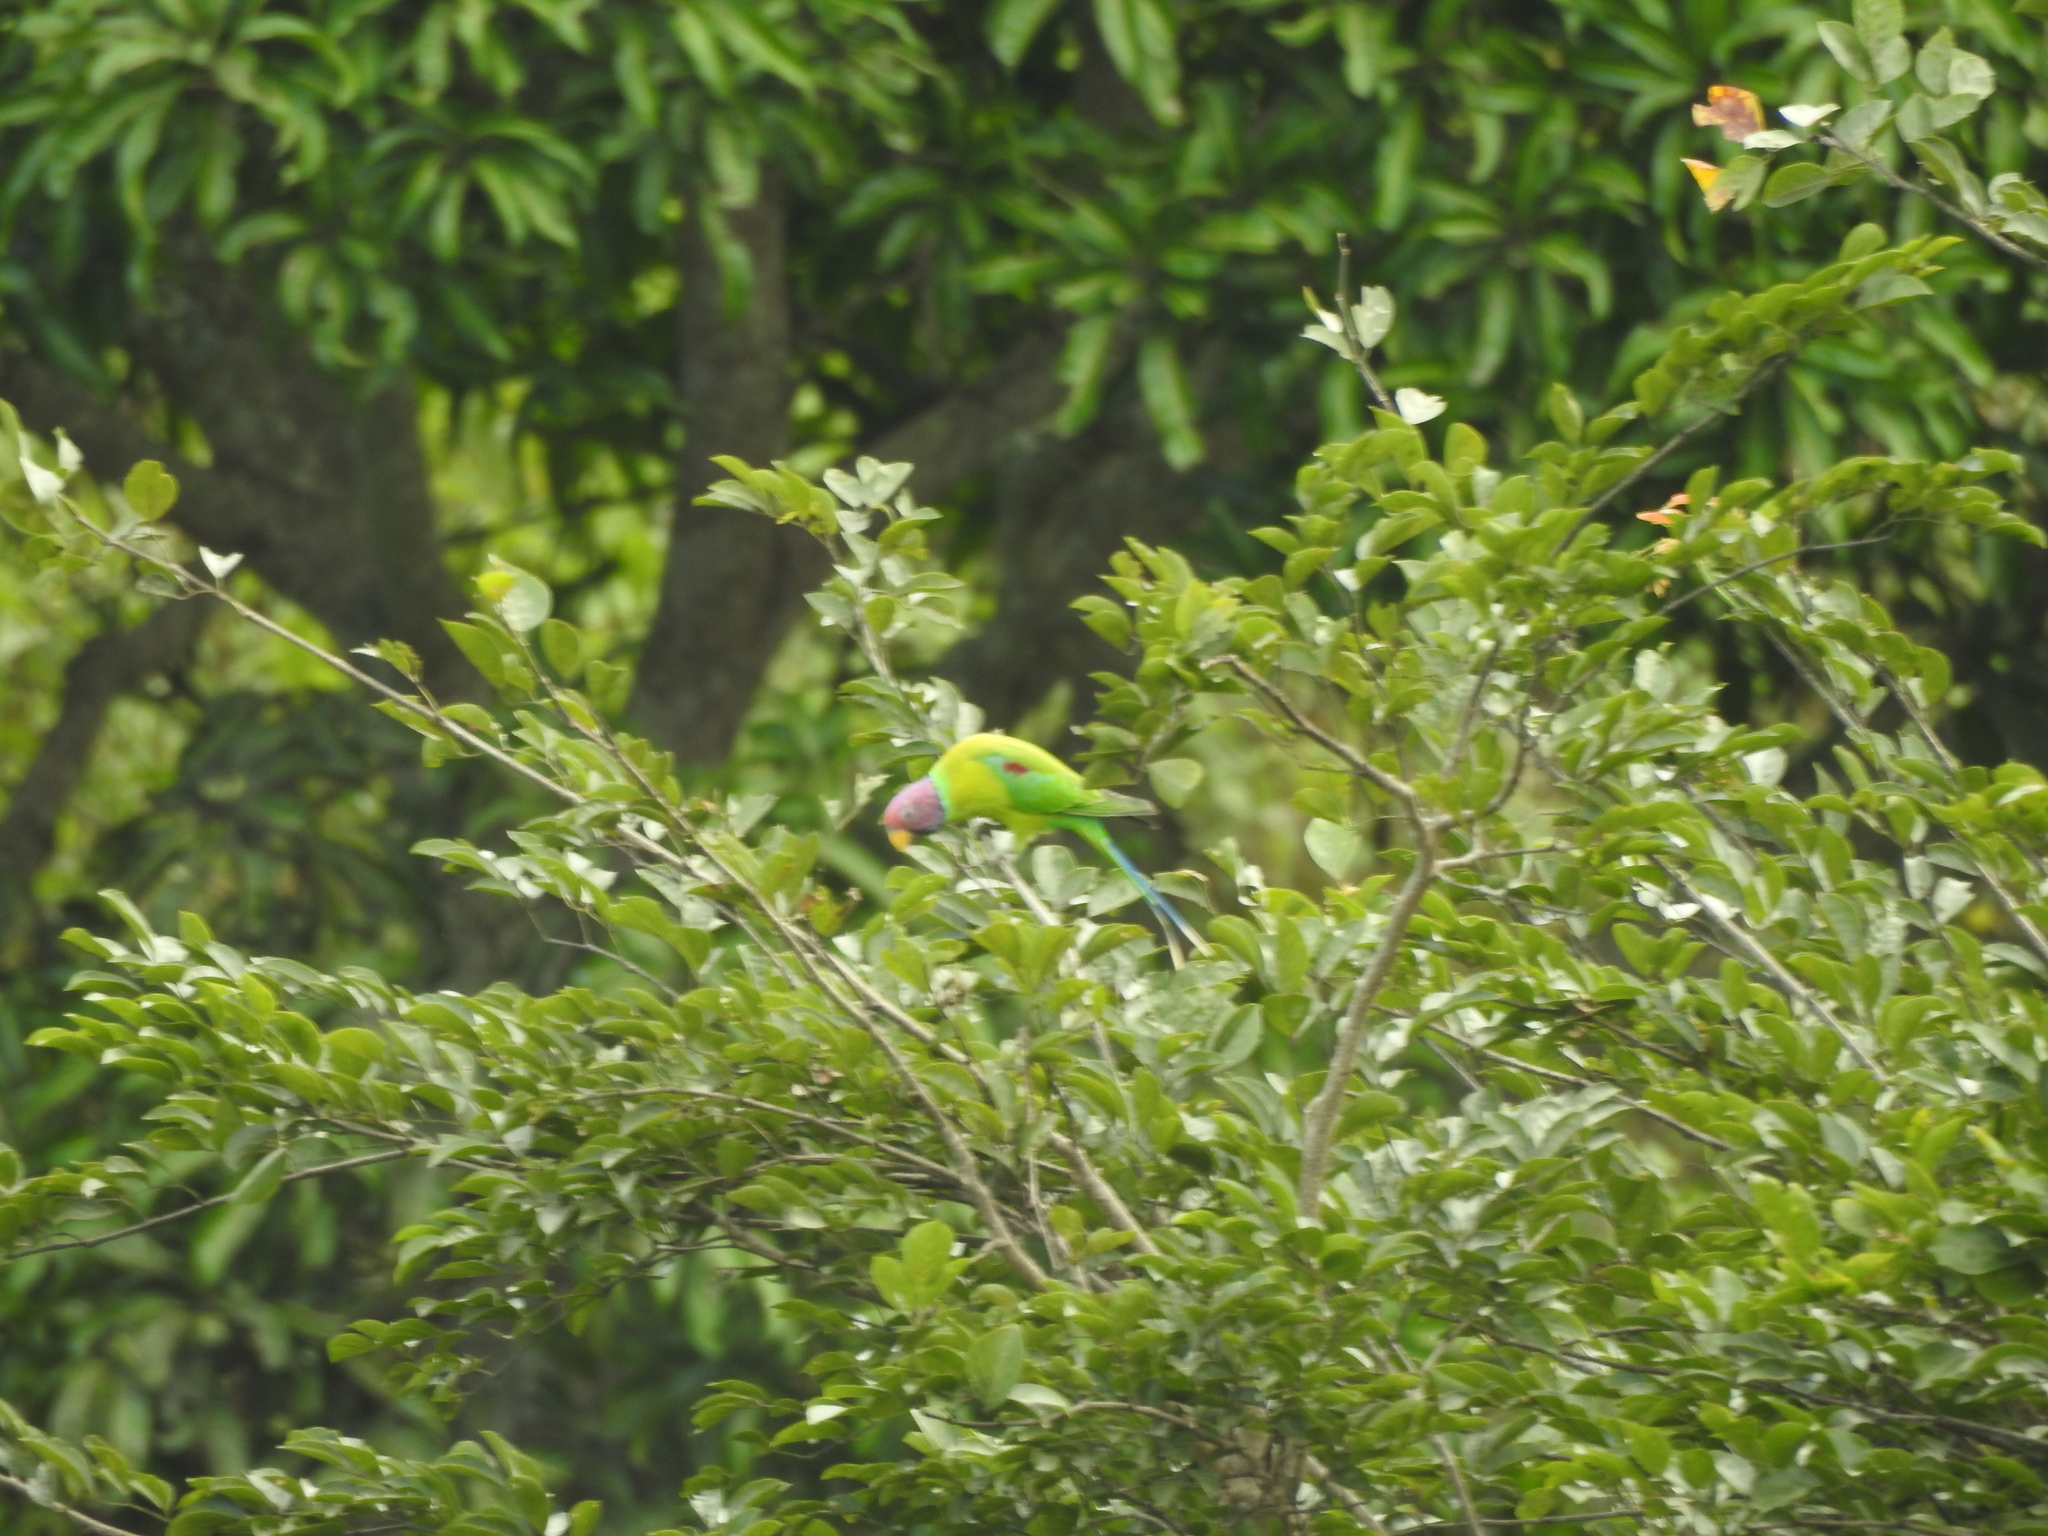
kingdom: Animalia
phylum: Chordata
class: Aves
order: Psittaciformes
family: Psittacidae
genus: Psittacula
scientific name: Psittacula cyanocephala
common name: Plum-headed parakeet
